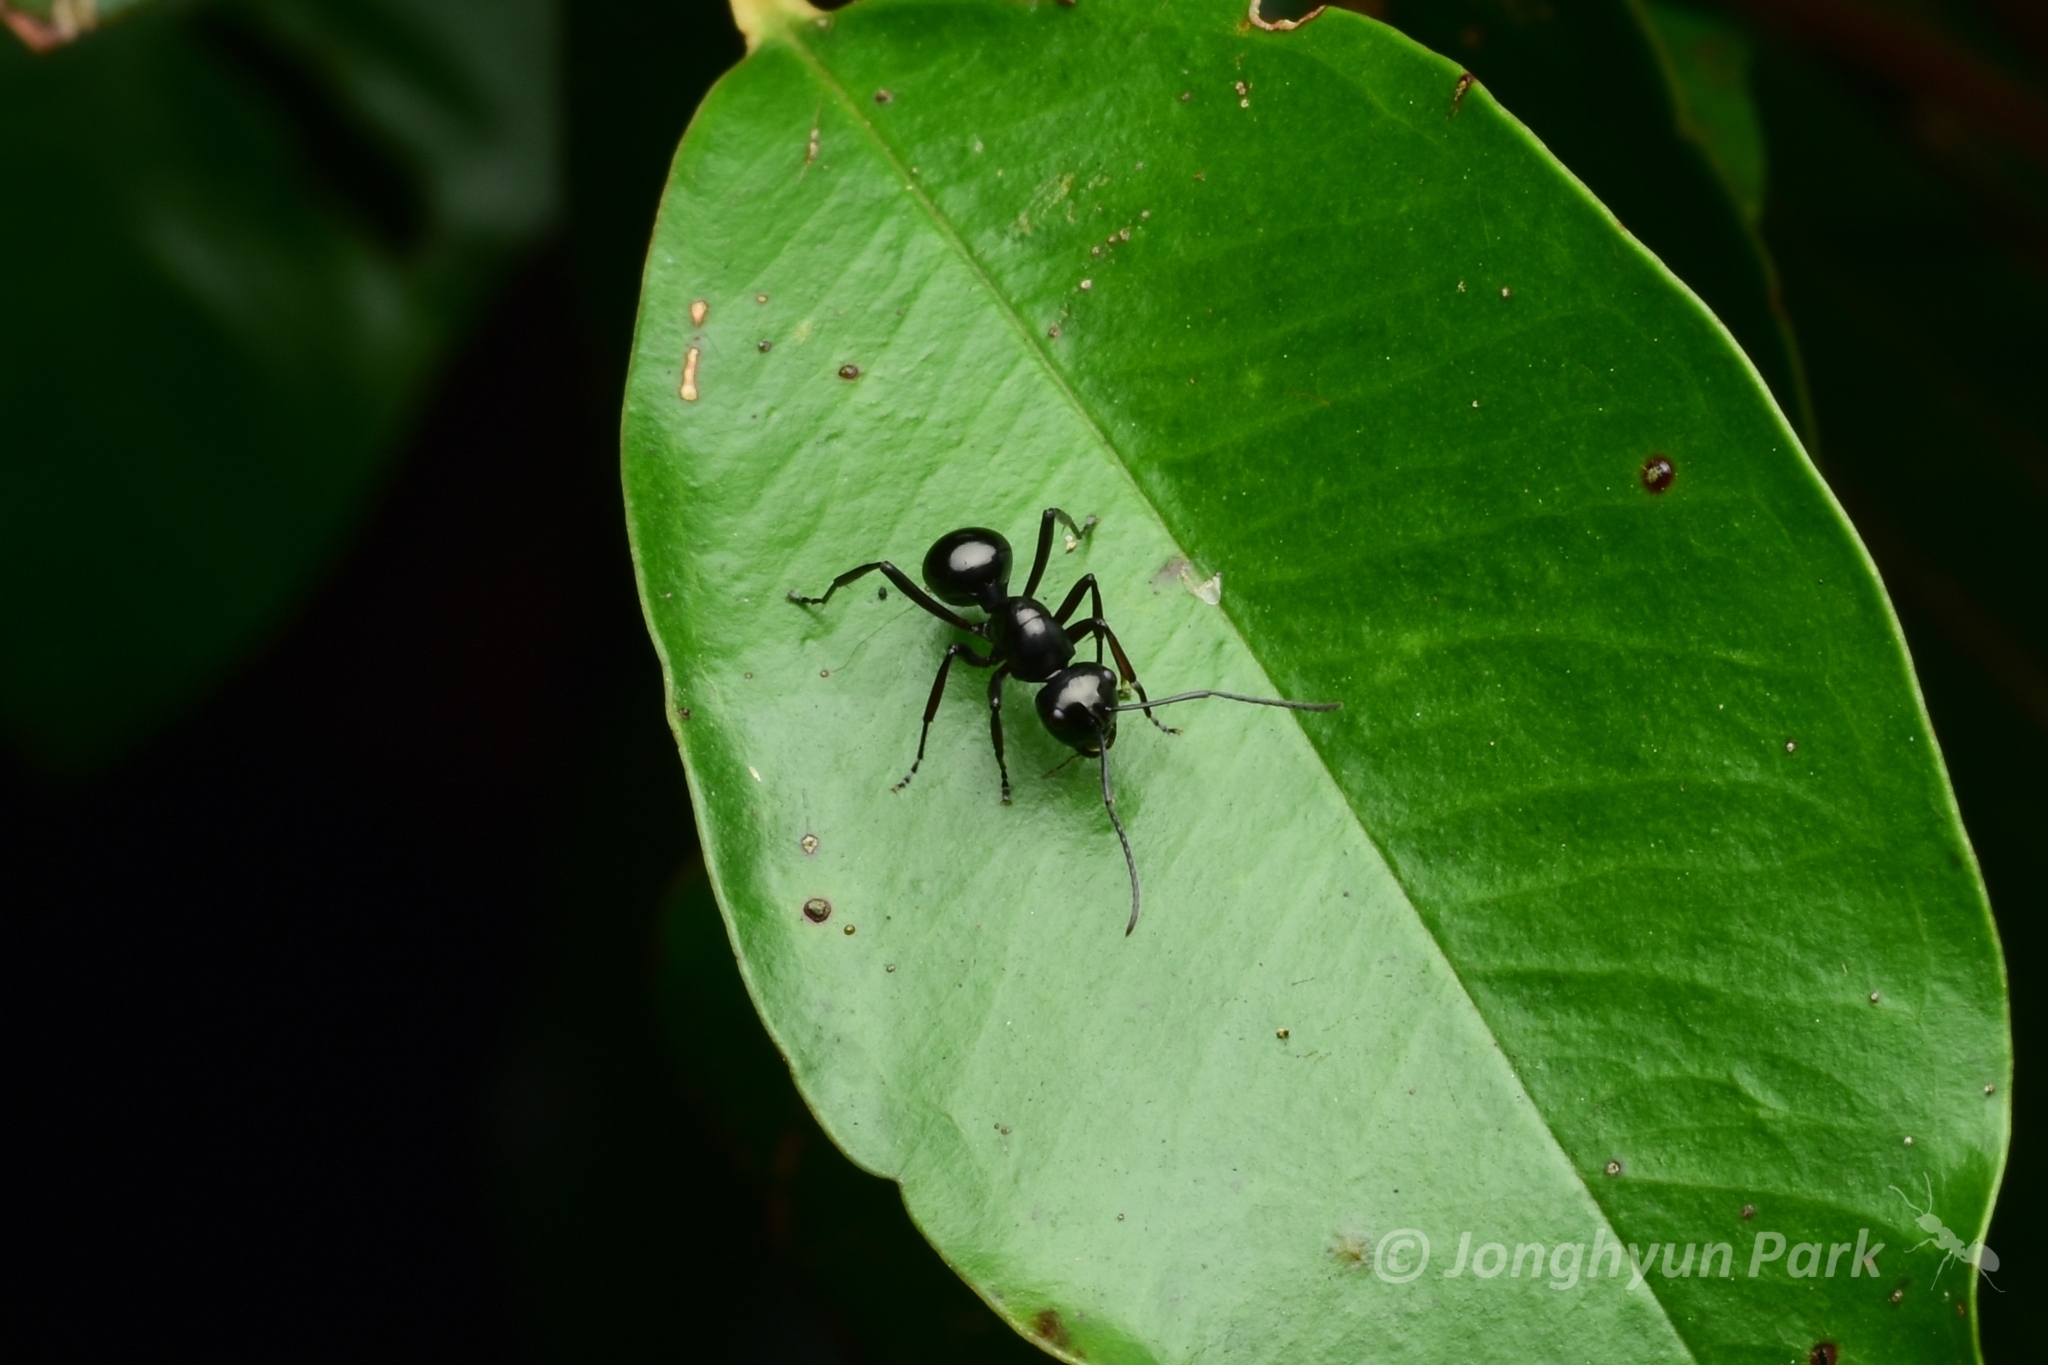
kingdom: Animalia
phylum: Arthropoda
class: Insecta
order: Hymenoptera
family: Formicidae
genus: Polyrhachis
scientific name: Polyrhachis robsoni
